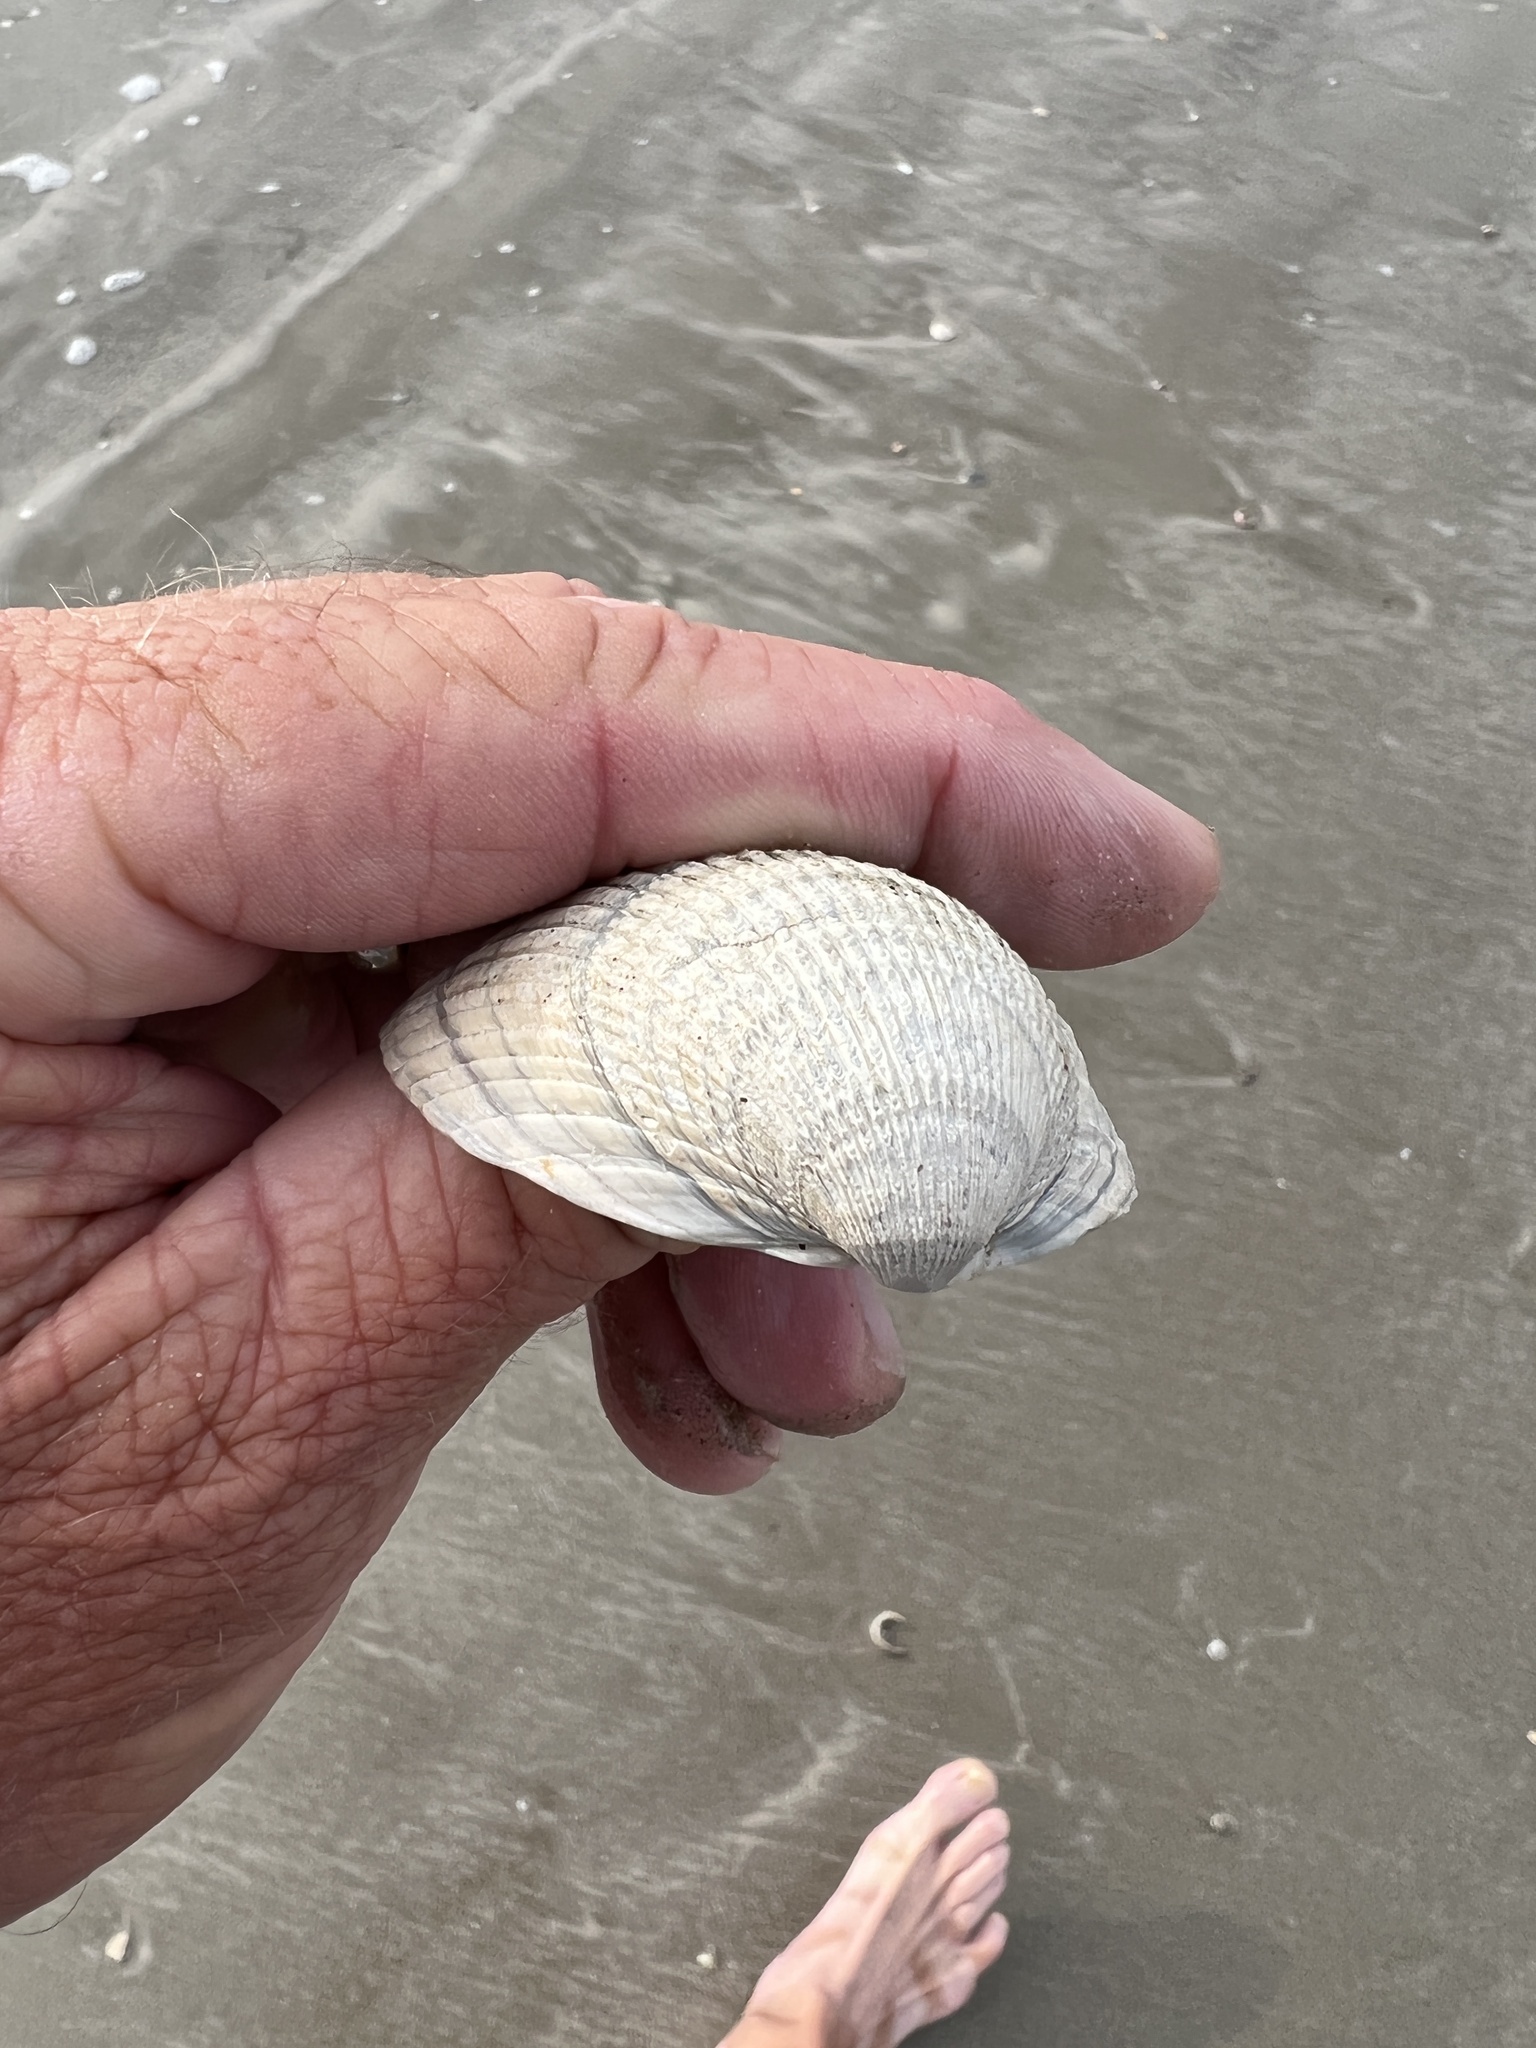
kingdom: Animalia
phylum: Mollusca
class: Bivalvia
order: Cardiida
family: Cardiidae
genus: Dinocardium
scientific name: Dinocardium robustum
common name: Atlantic giant cockle
